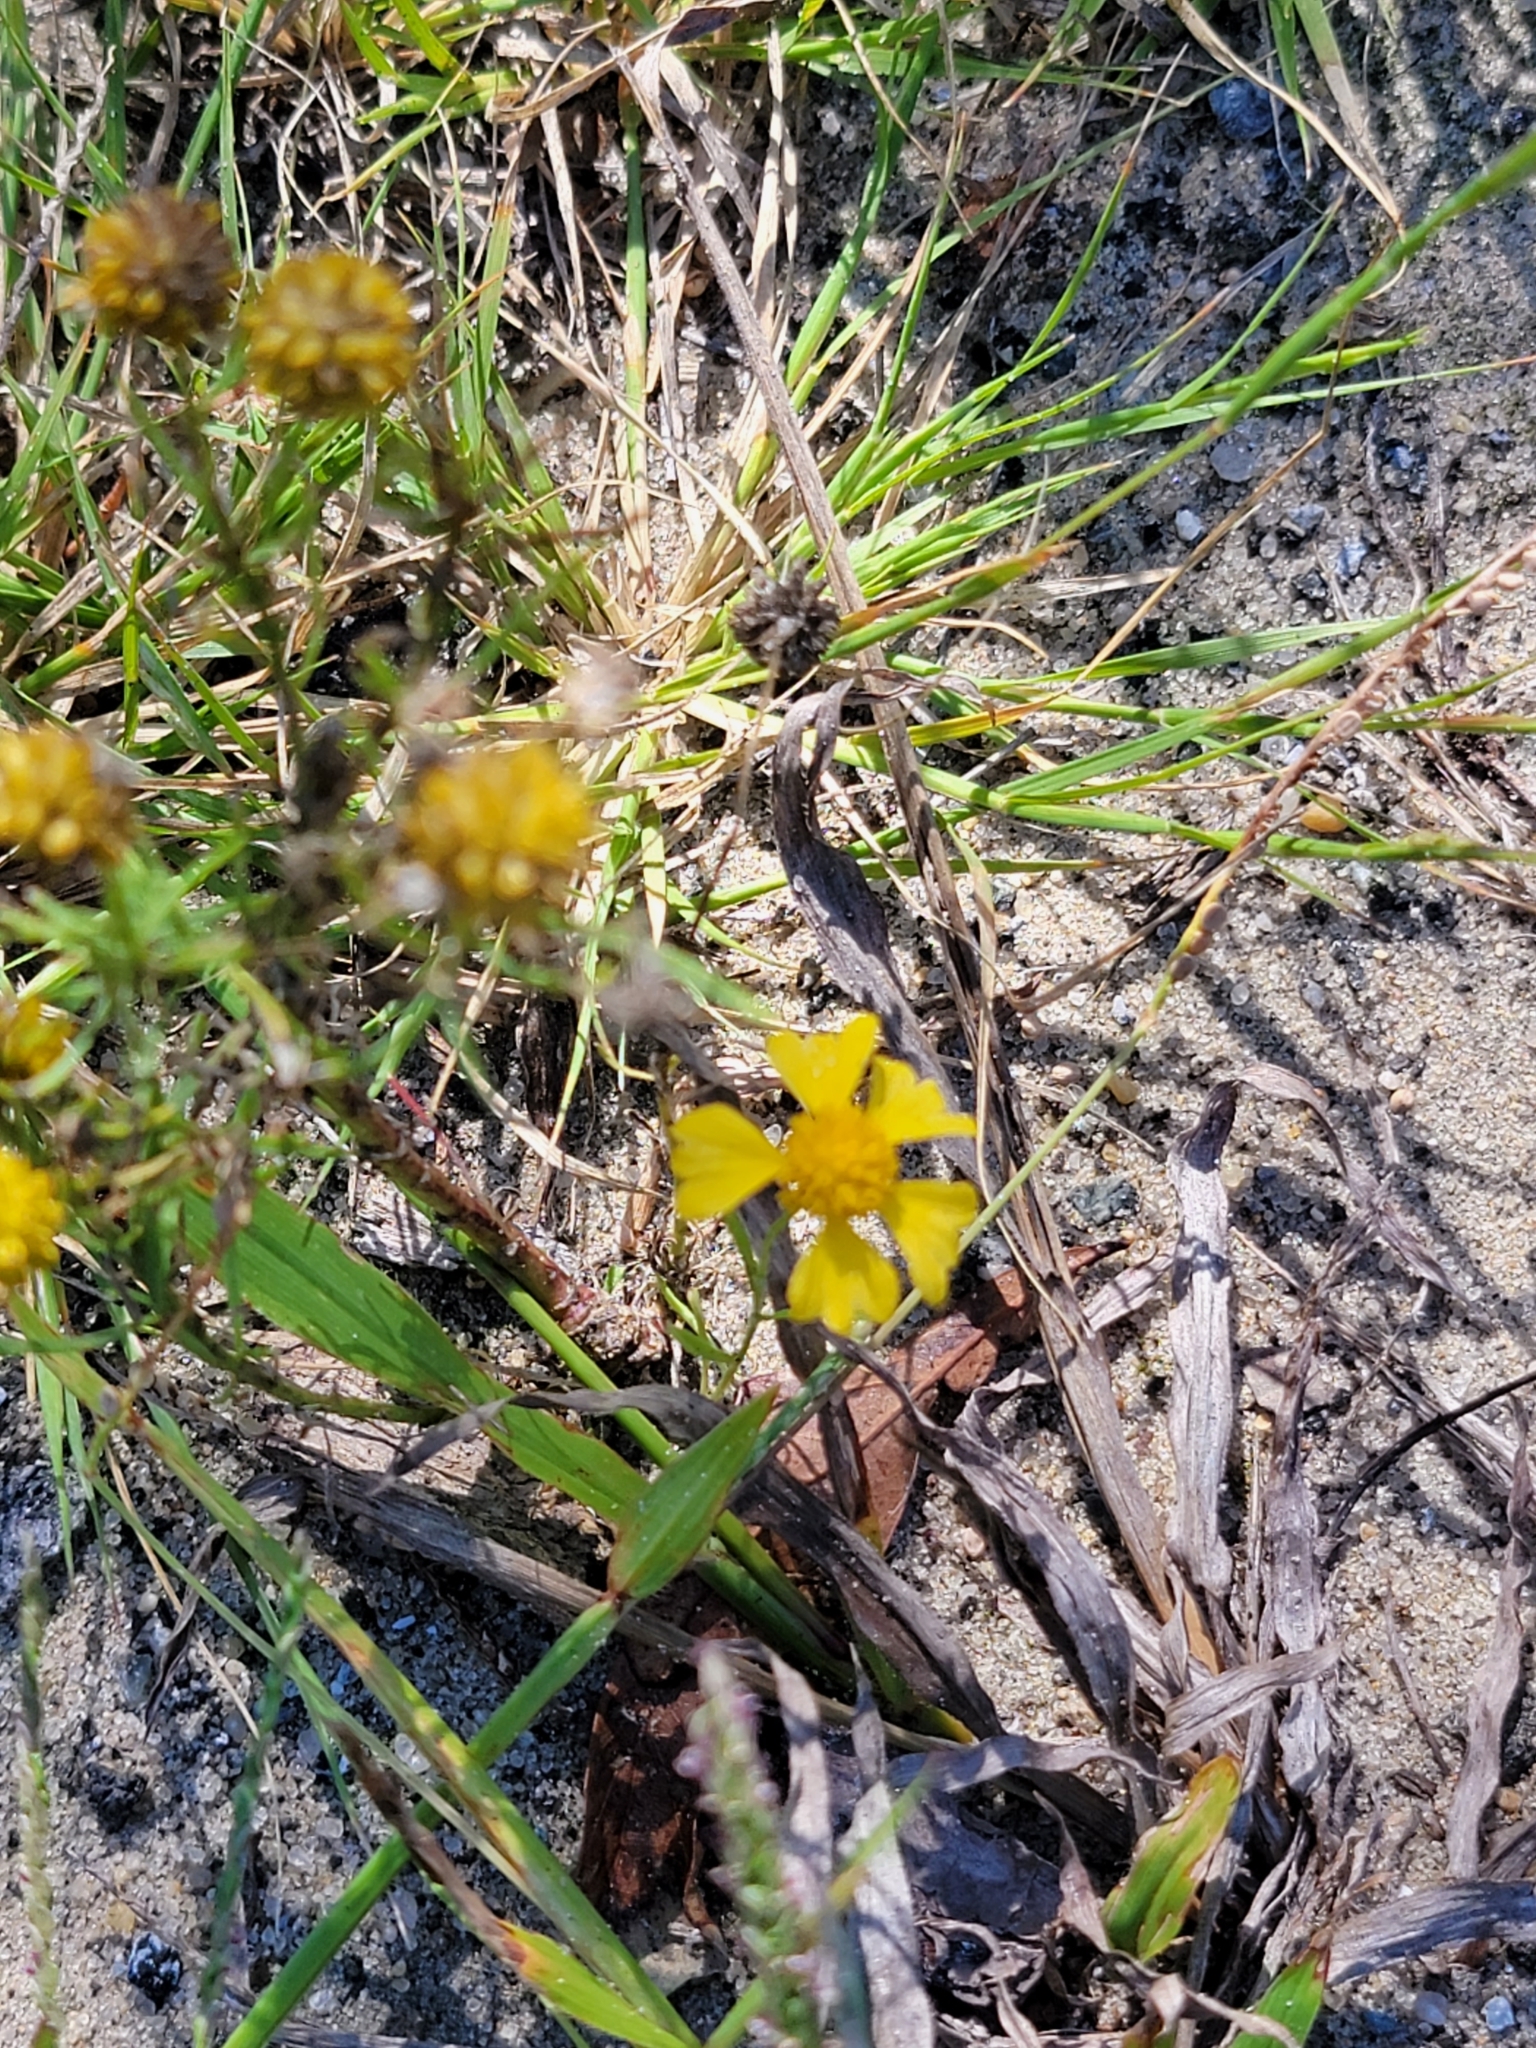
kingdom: Plantae
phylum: Tracheophyta
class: Magnoliopsida
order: Asterales
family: Asteraceae
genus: Helenium
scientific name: Helenium amarum
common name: Bitter sneezeweed
